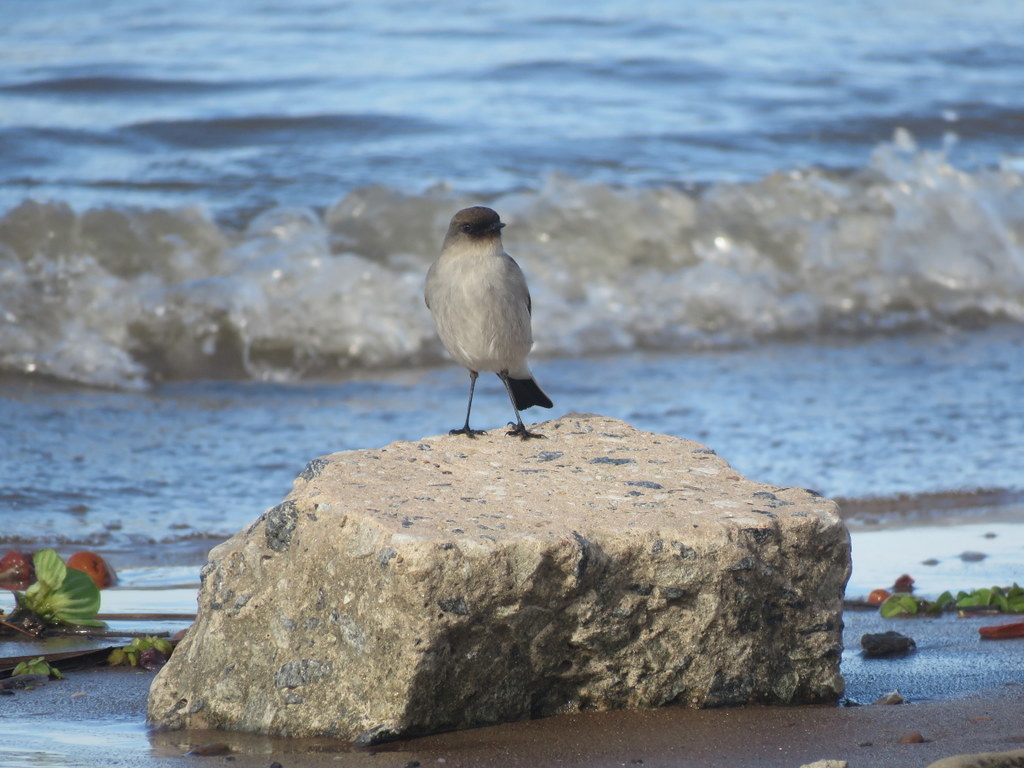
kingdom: Animalia
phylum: Chordata
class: Aves
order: Passeriformes
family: Tyrannidae
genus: Muscisaxicola
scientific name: Muscisaxicola maclovianus
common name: Dark-faced ground tyrant
